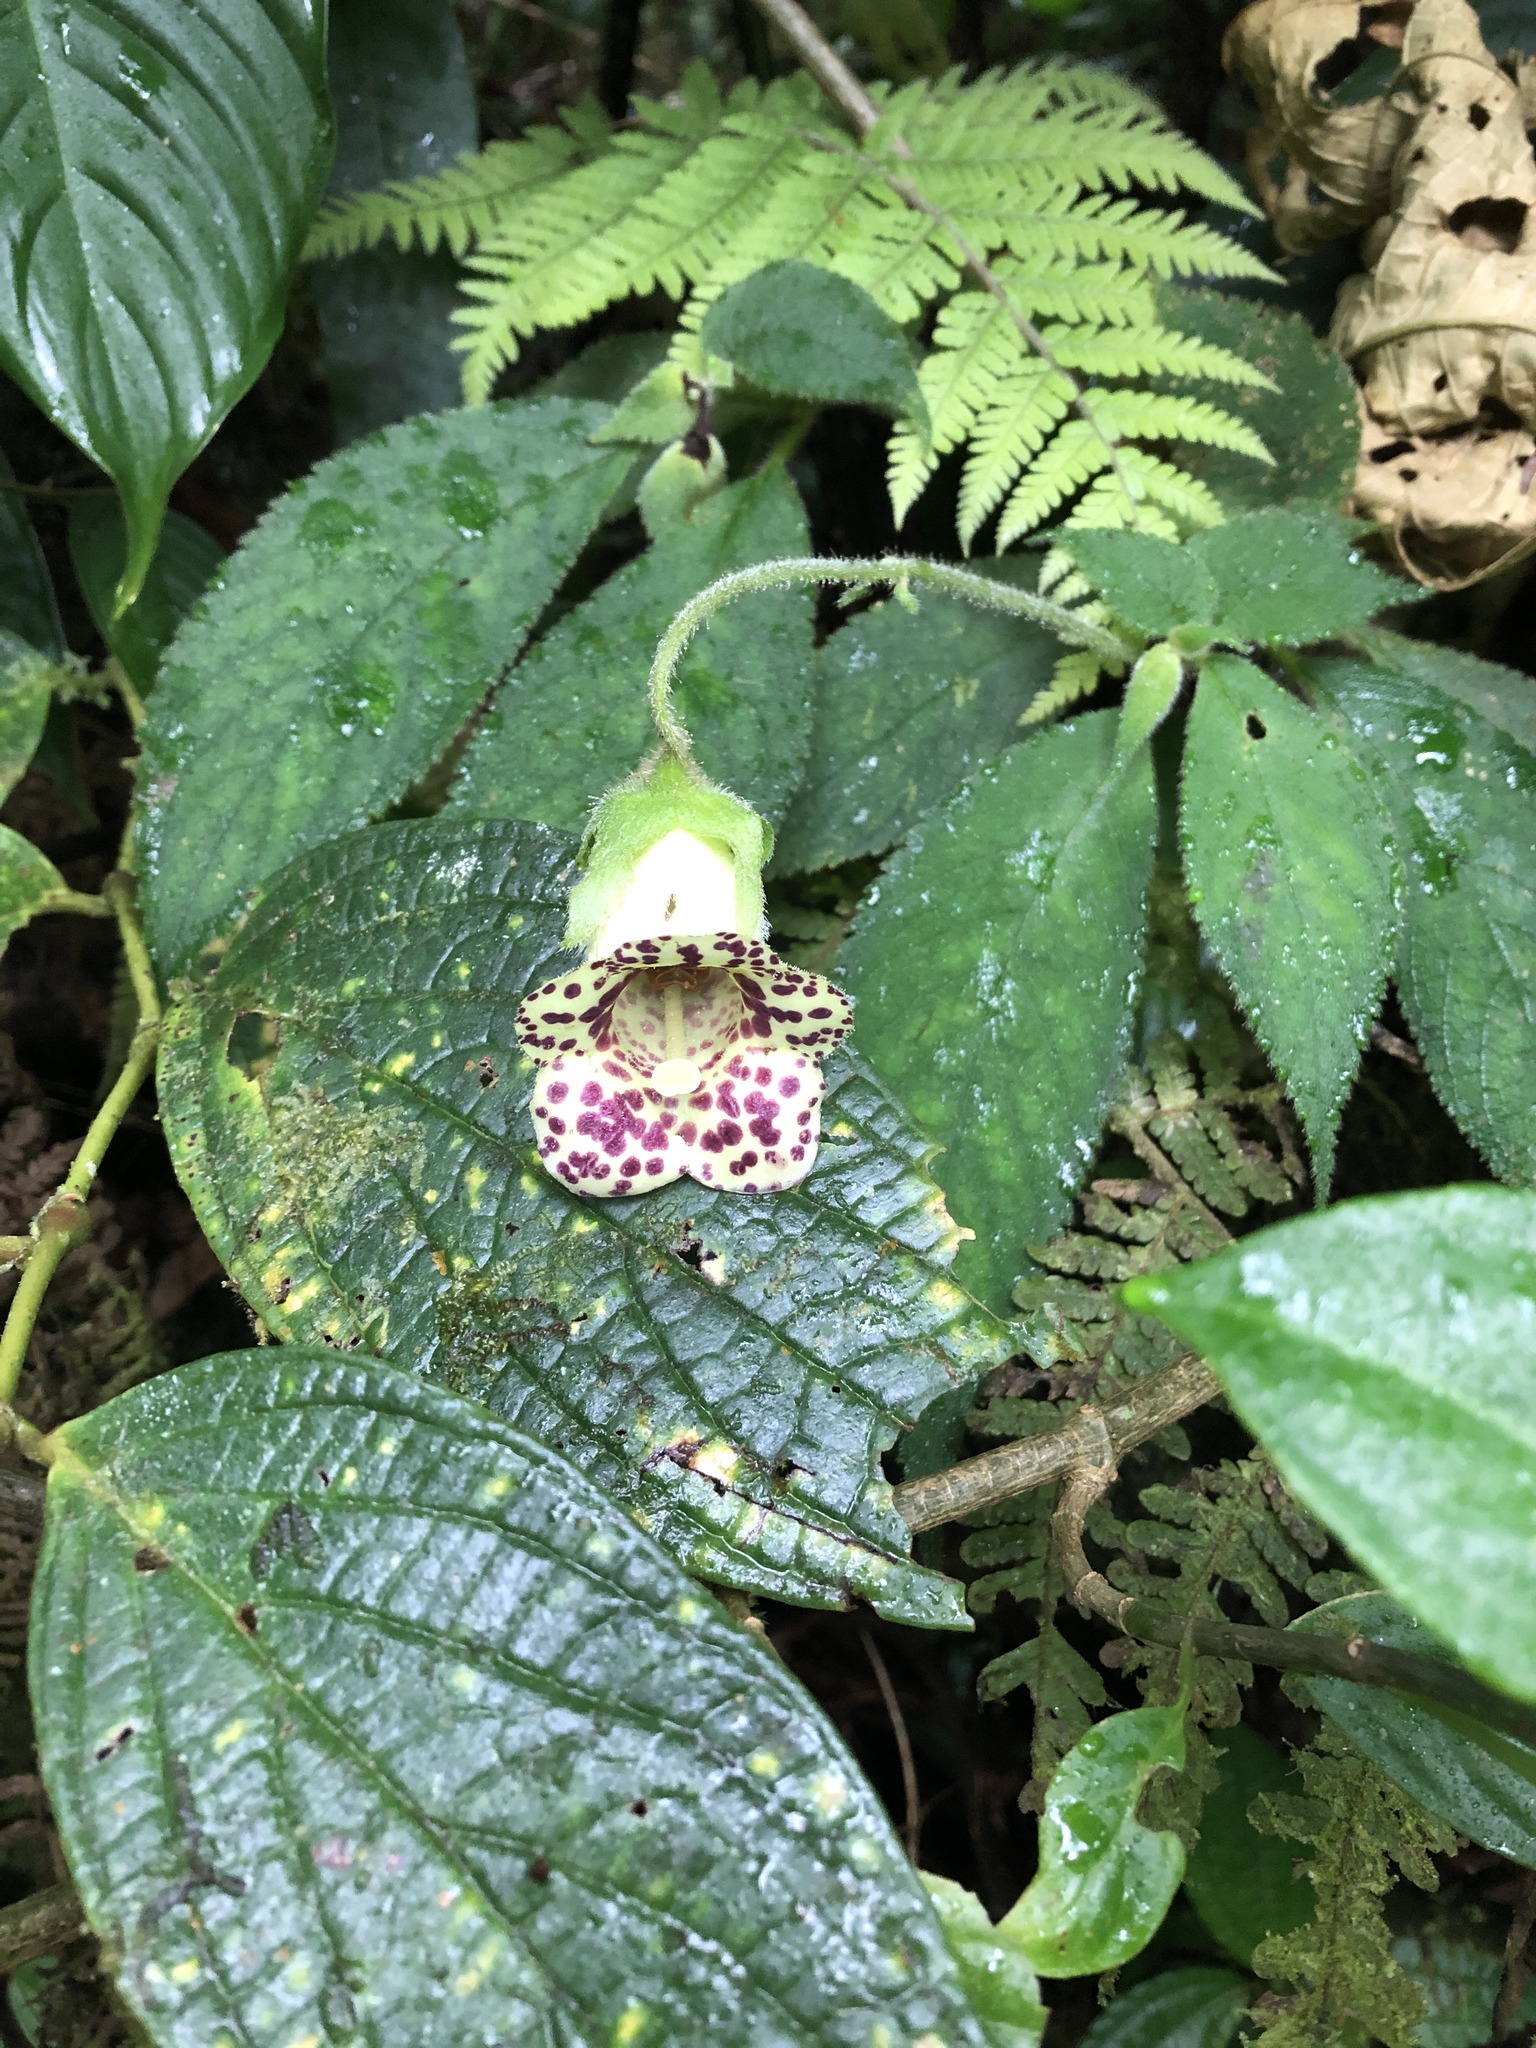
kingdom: Plantae
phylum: Tracheophyta
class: Magnoliopsida
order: Lamiales
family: Gesneriaceae
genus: Kohleria
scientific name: Kohleria tigridia
